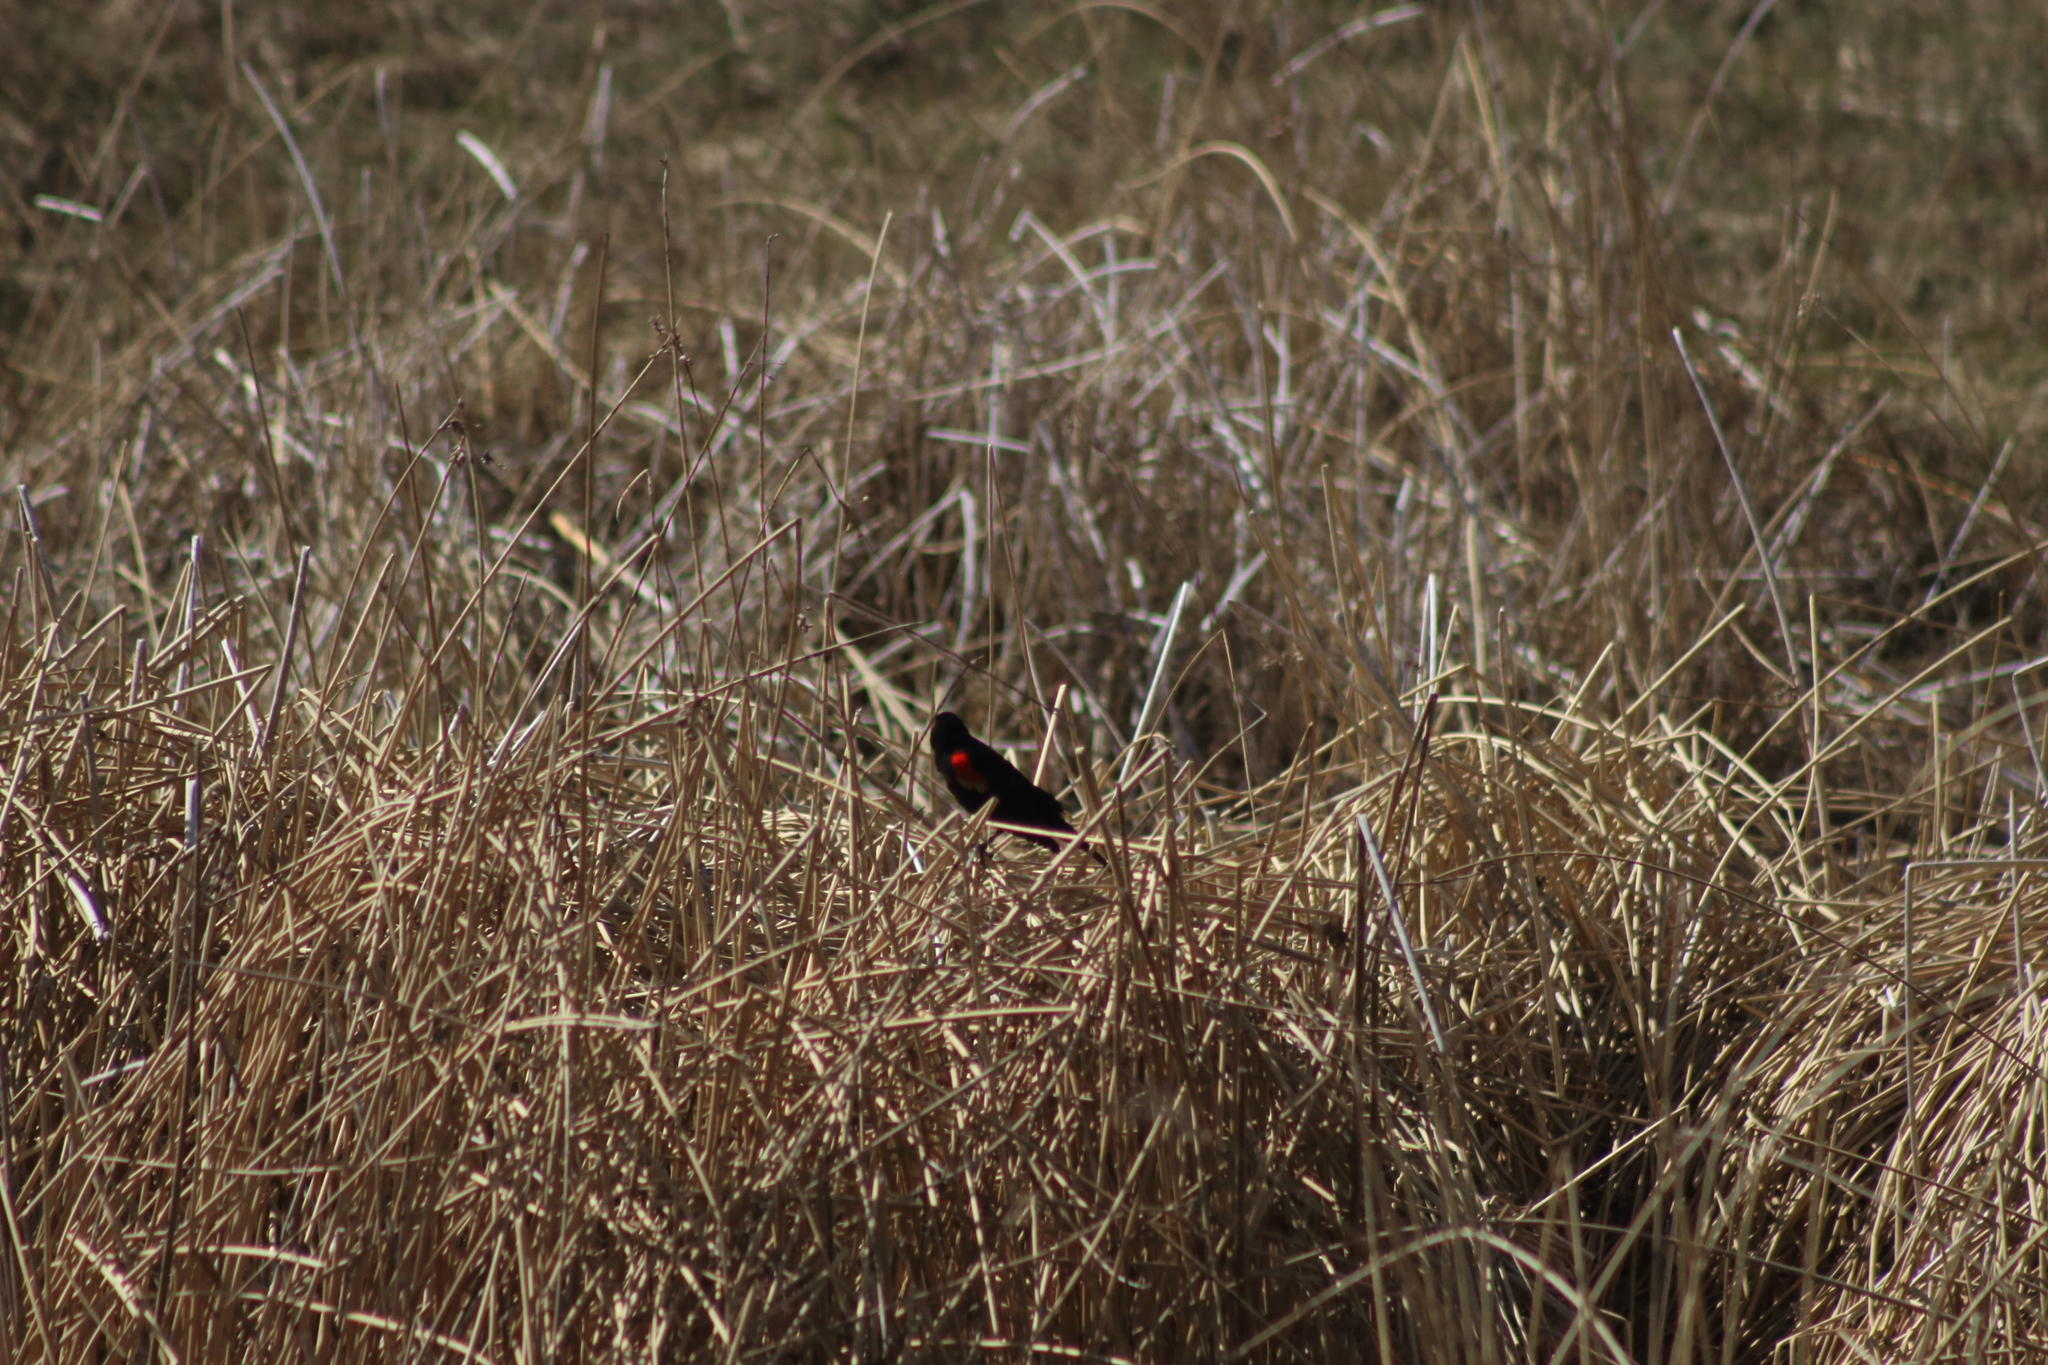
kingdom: Animalia
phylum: Chordata
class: Aves
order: Passeriformes
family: Icteridae
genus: Agelaius
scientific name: Agelaius phoeniceus
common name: Red-winged blackbird
